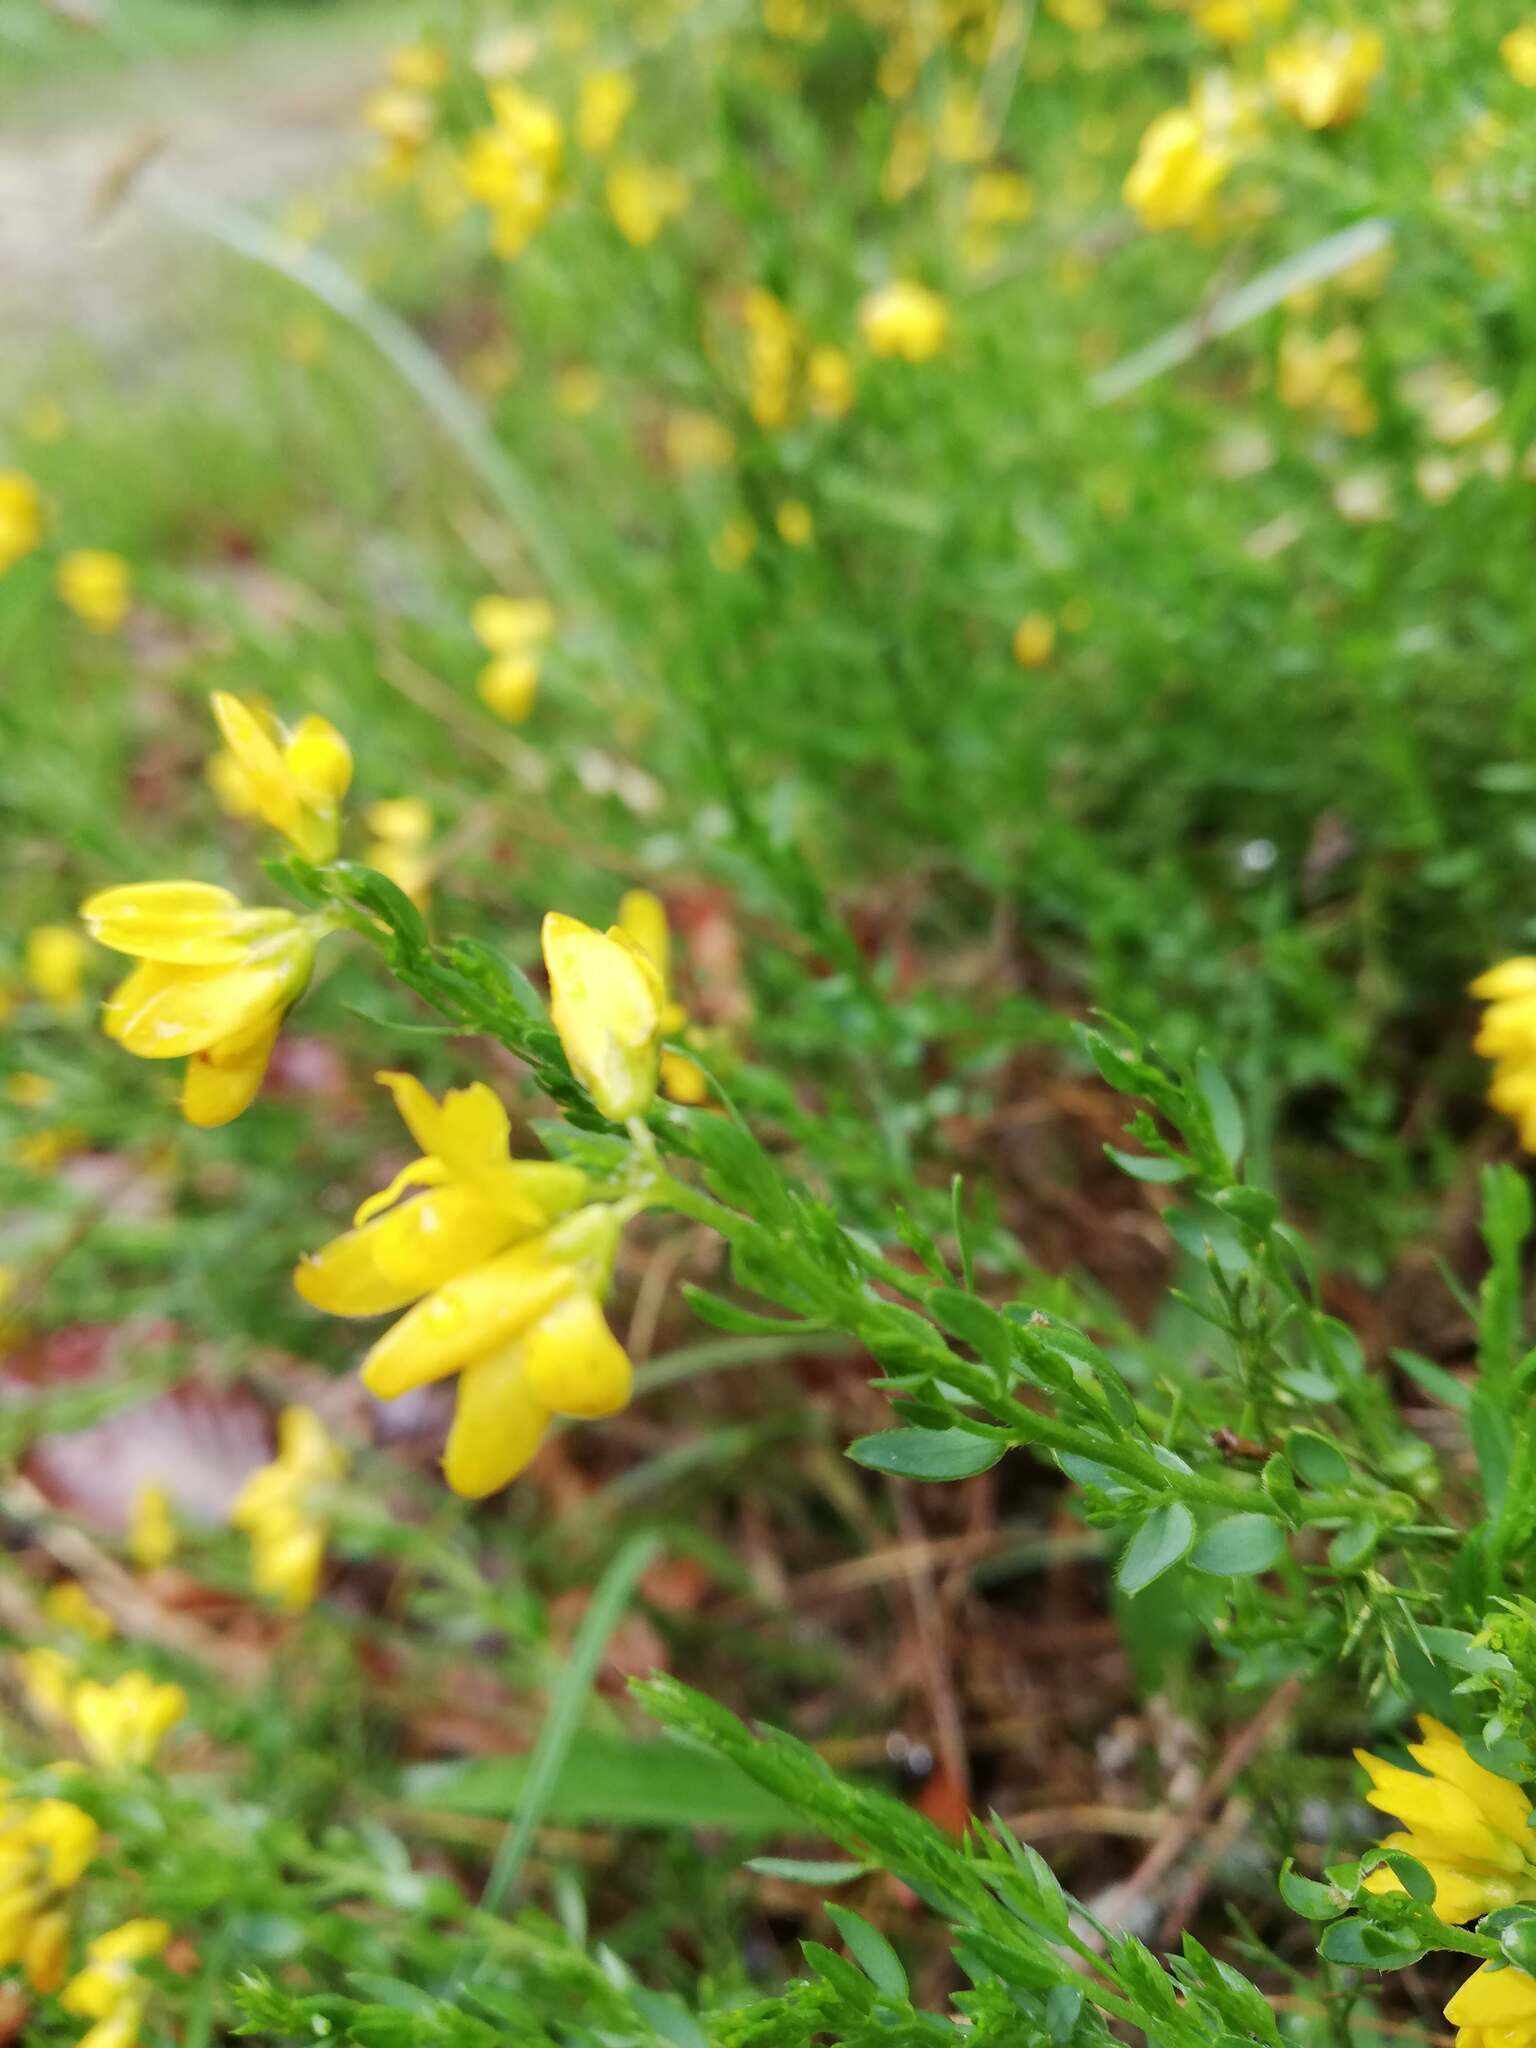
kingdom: Plantae
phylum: Tracheophyta
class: Magnoliopsida
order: Fabales
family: Fabaceae
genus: Genista
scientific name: Genista hispanica
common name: Spanish gorse
